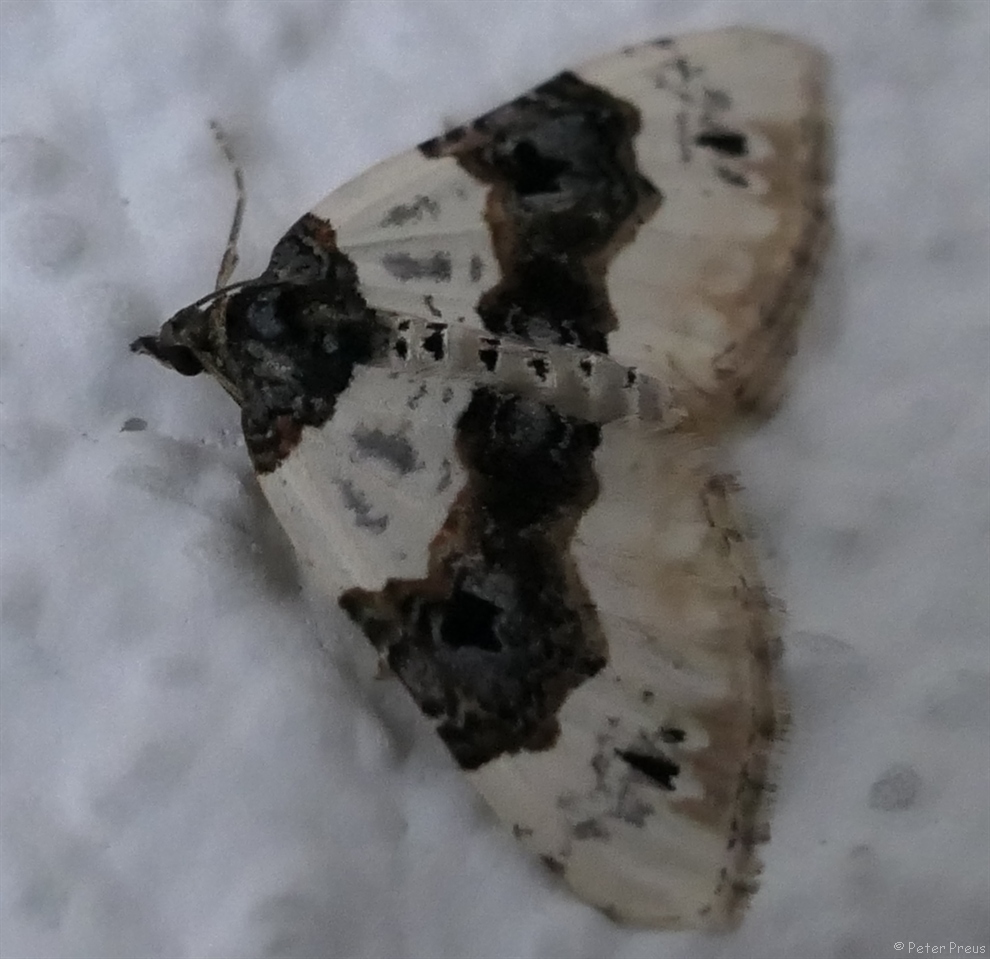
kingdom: Animalia
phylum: Arthropoda
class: Insecta
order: Lepidoptera
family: Geometridae
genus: Cosmorhoe
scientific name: Cosmorhoe ocellata
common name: Purple bar
